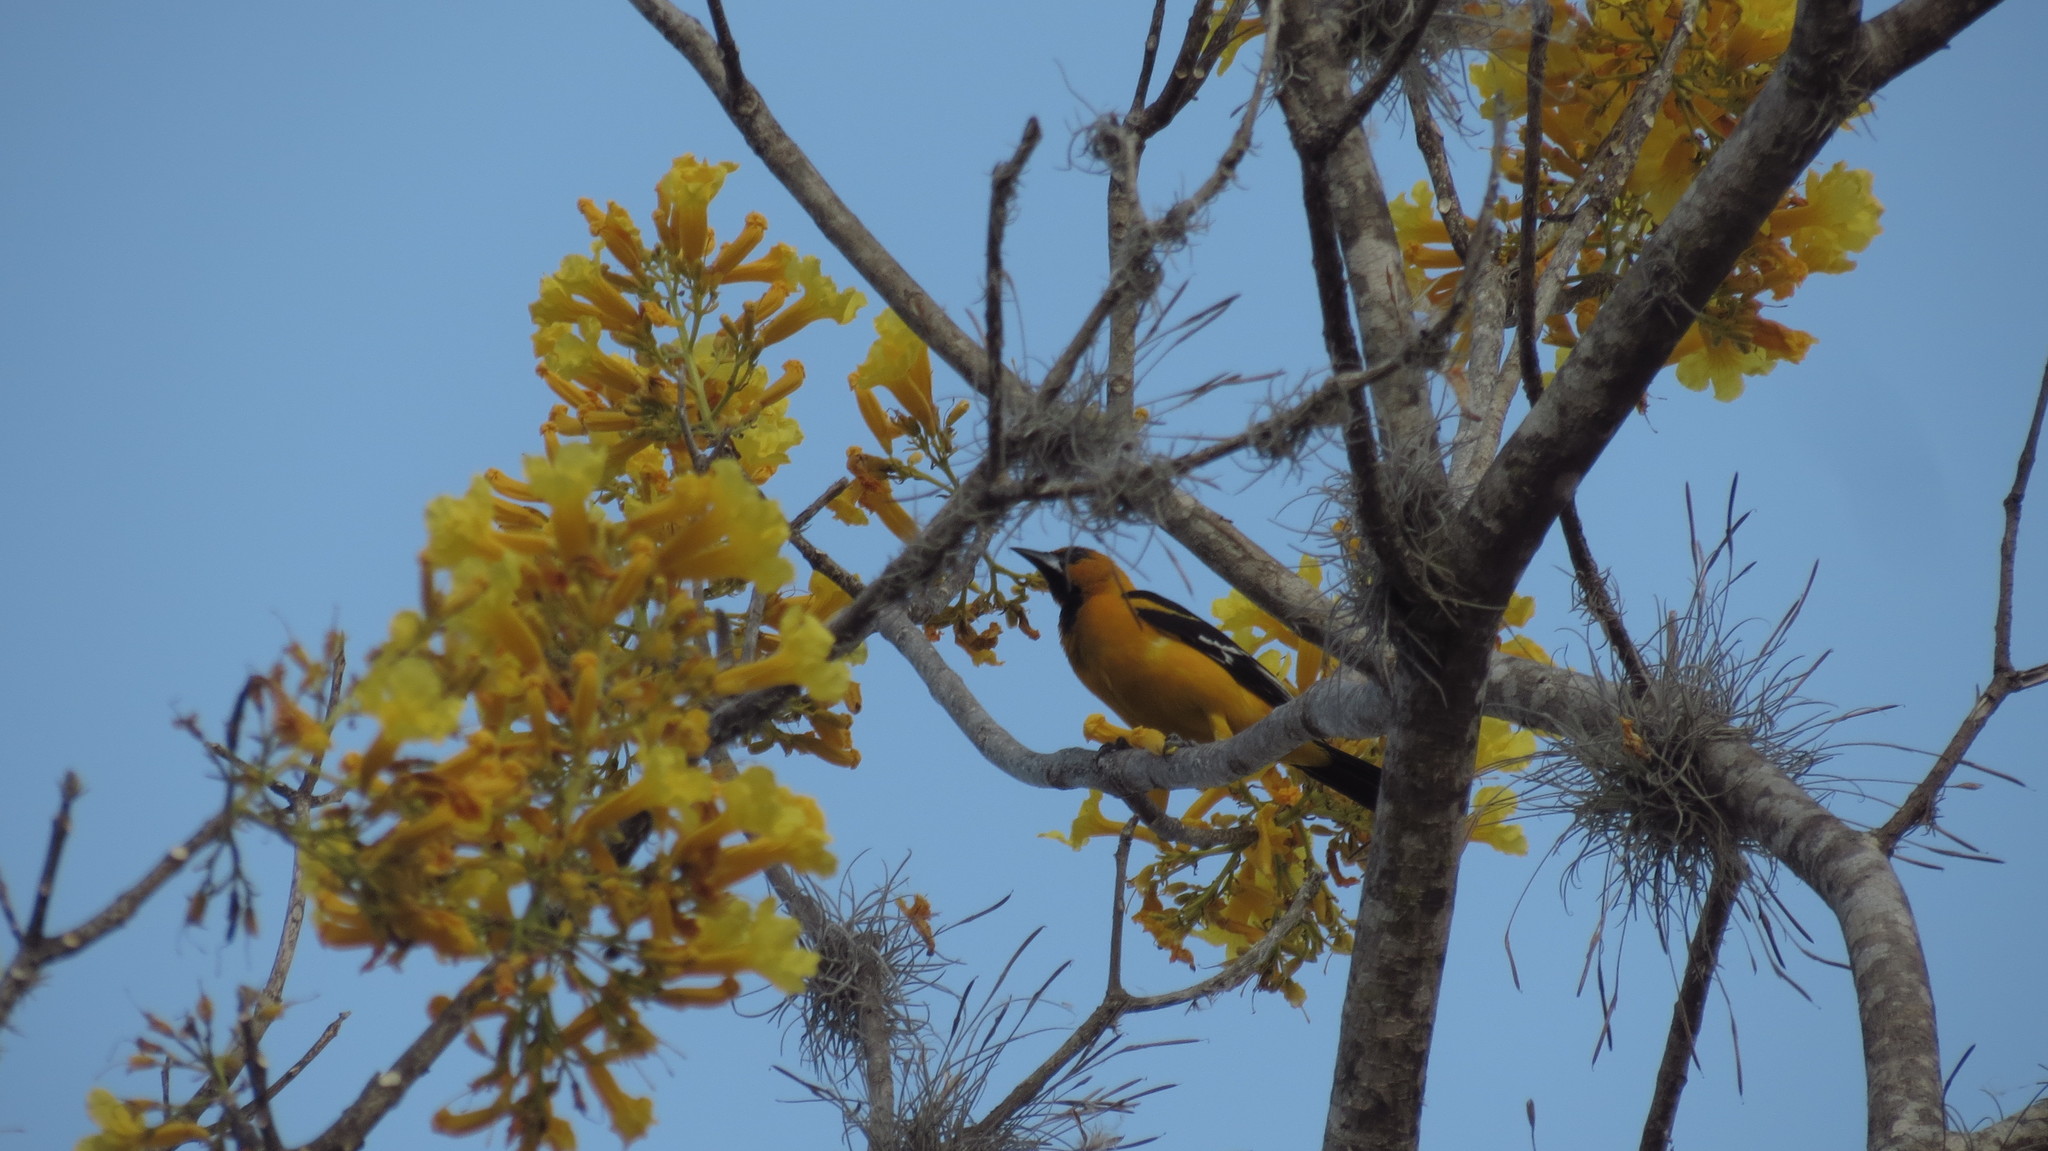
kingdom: Animalia
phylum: Chordata
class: Aves
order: Passeriformes
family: Icteridae
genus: Icterus
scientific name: Icterus gularis
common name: Altamira oriole
